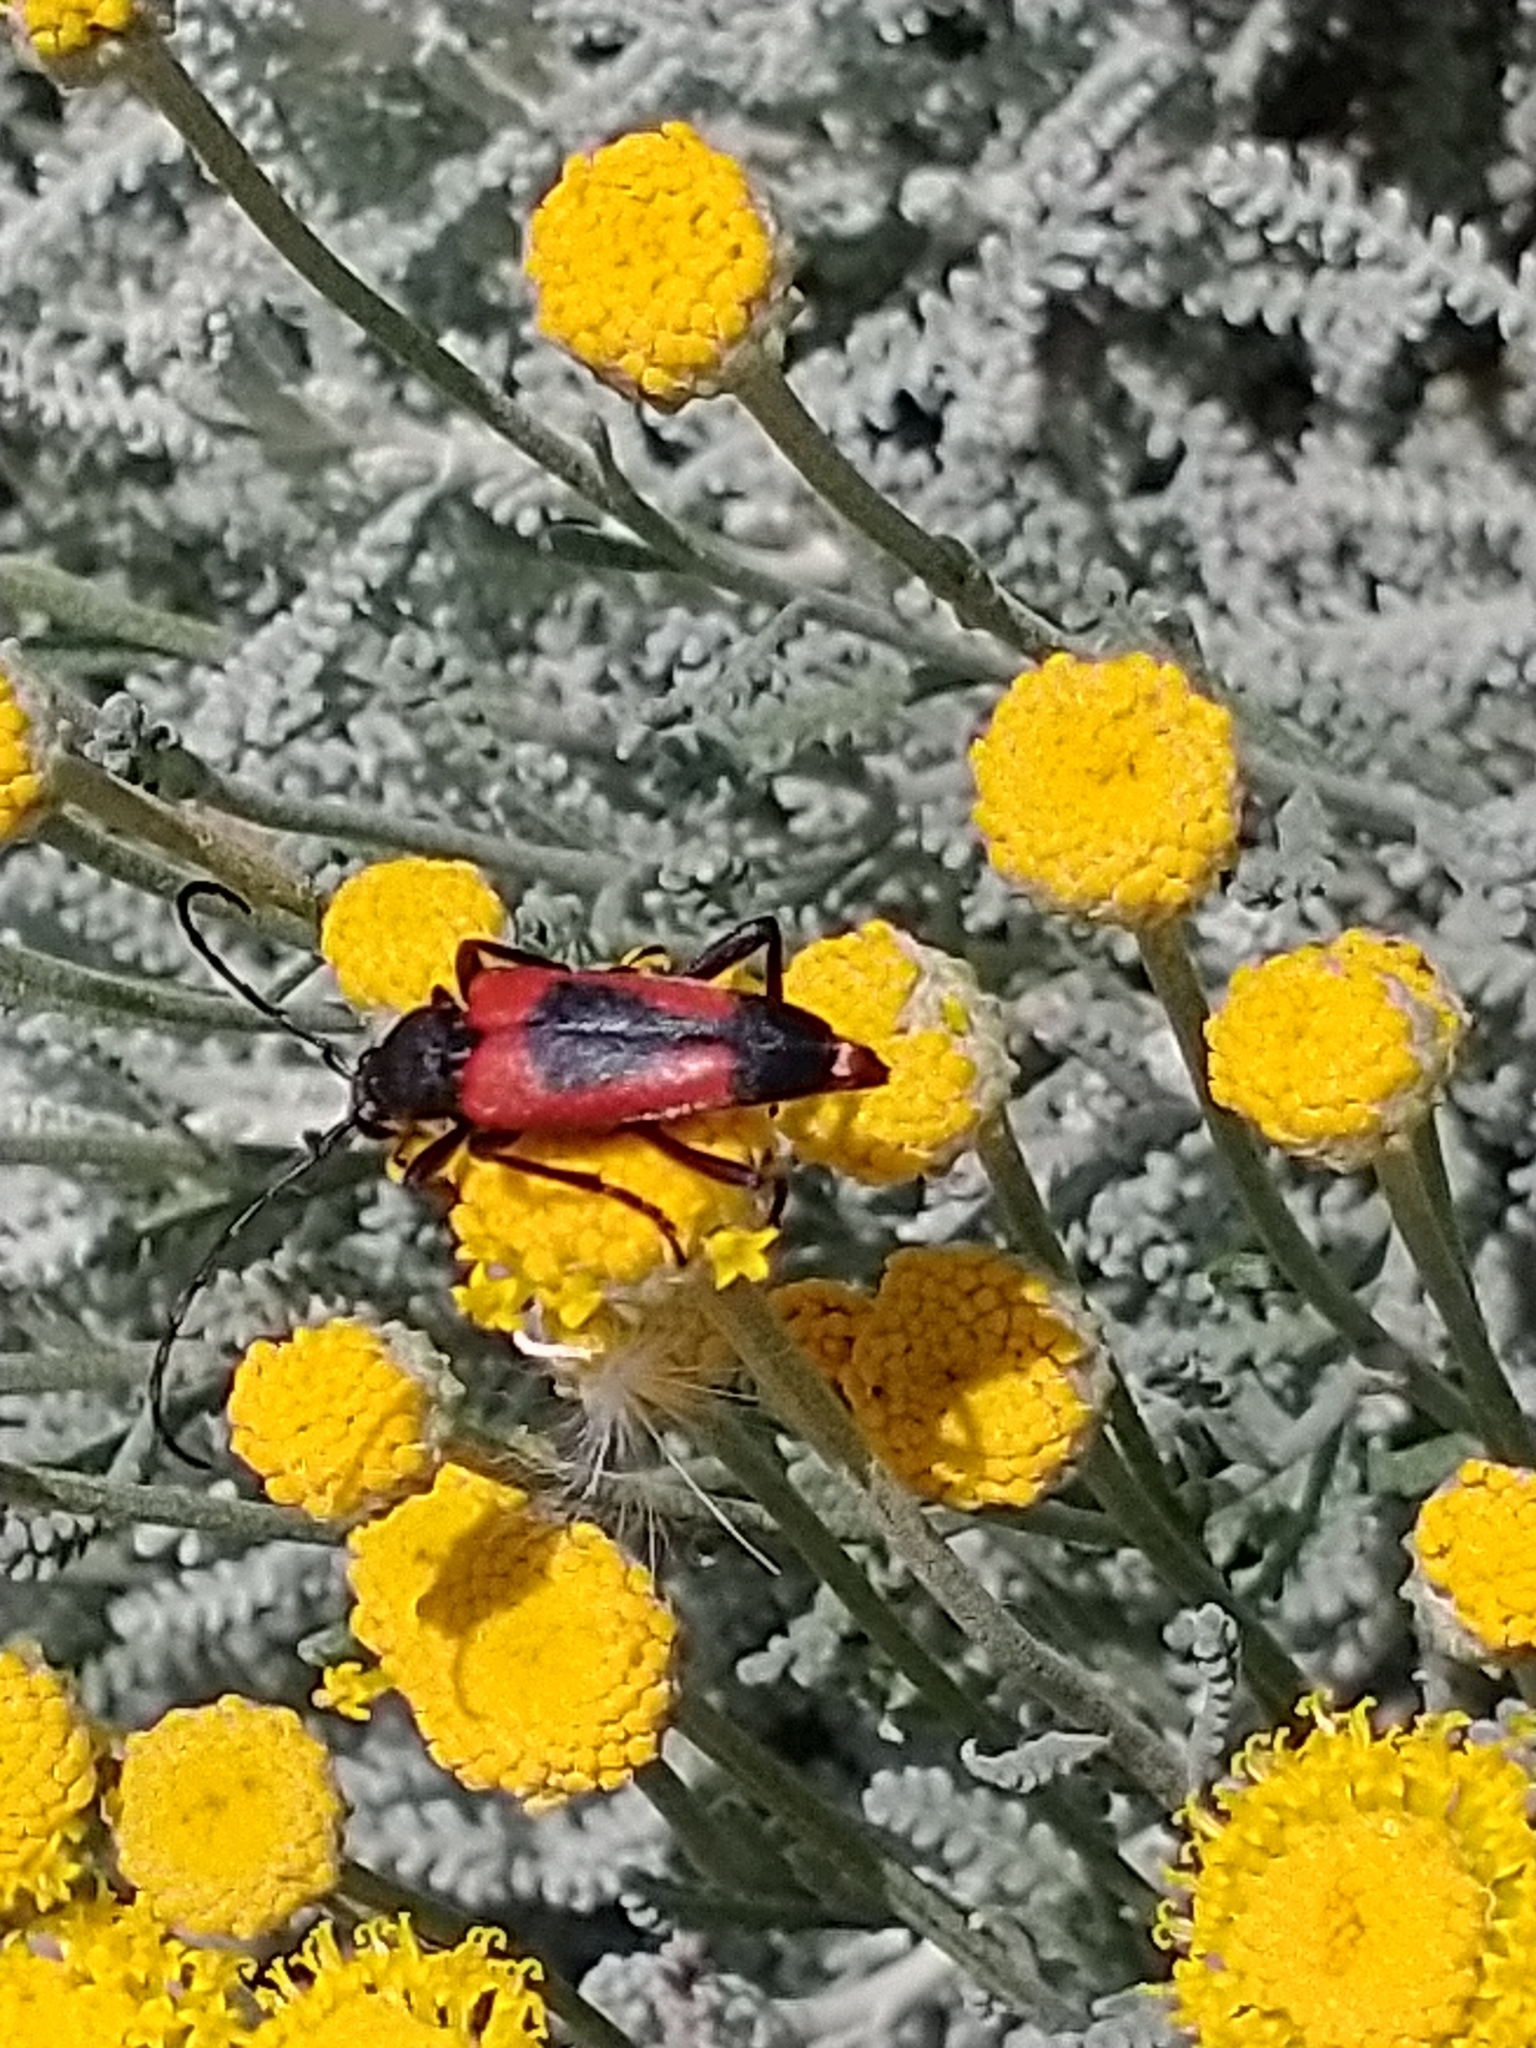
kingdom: Animalia
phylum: Arthropoda
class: Insecta
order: Coleoptera
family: Cerambycidae
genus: Stictoleptura
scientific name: Stictoleptura cordigera
